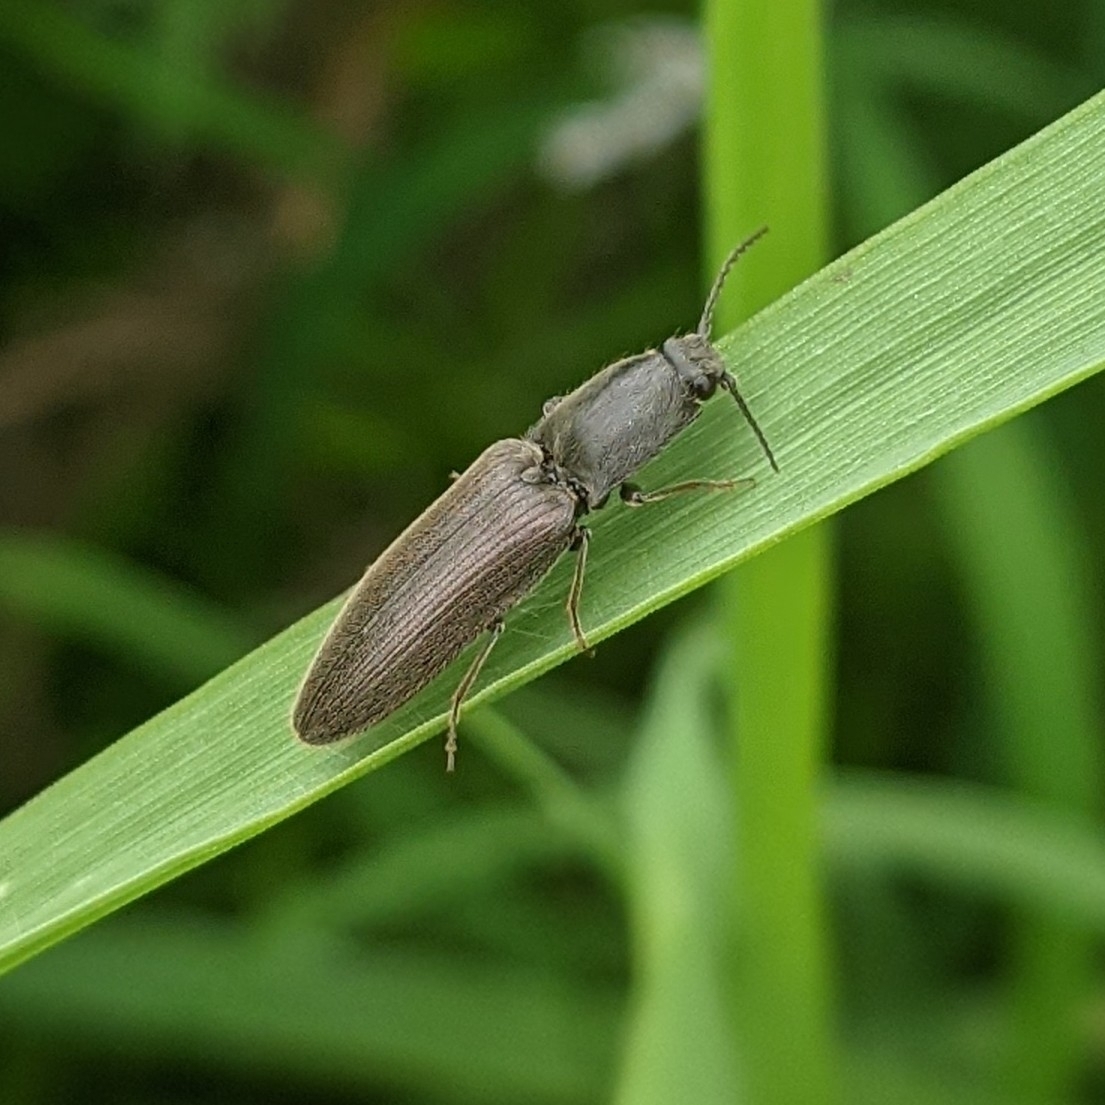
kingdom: Animalia
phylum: Arthropoda
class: Insecta
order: Coleoptera
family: Elateridae
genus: Athous
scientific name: Athous haemorrhoidalis
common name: Red-brown click beetle
